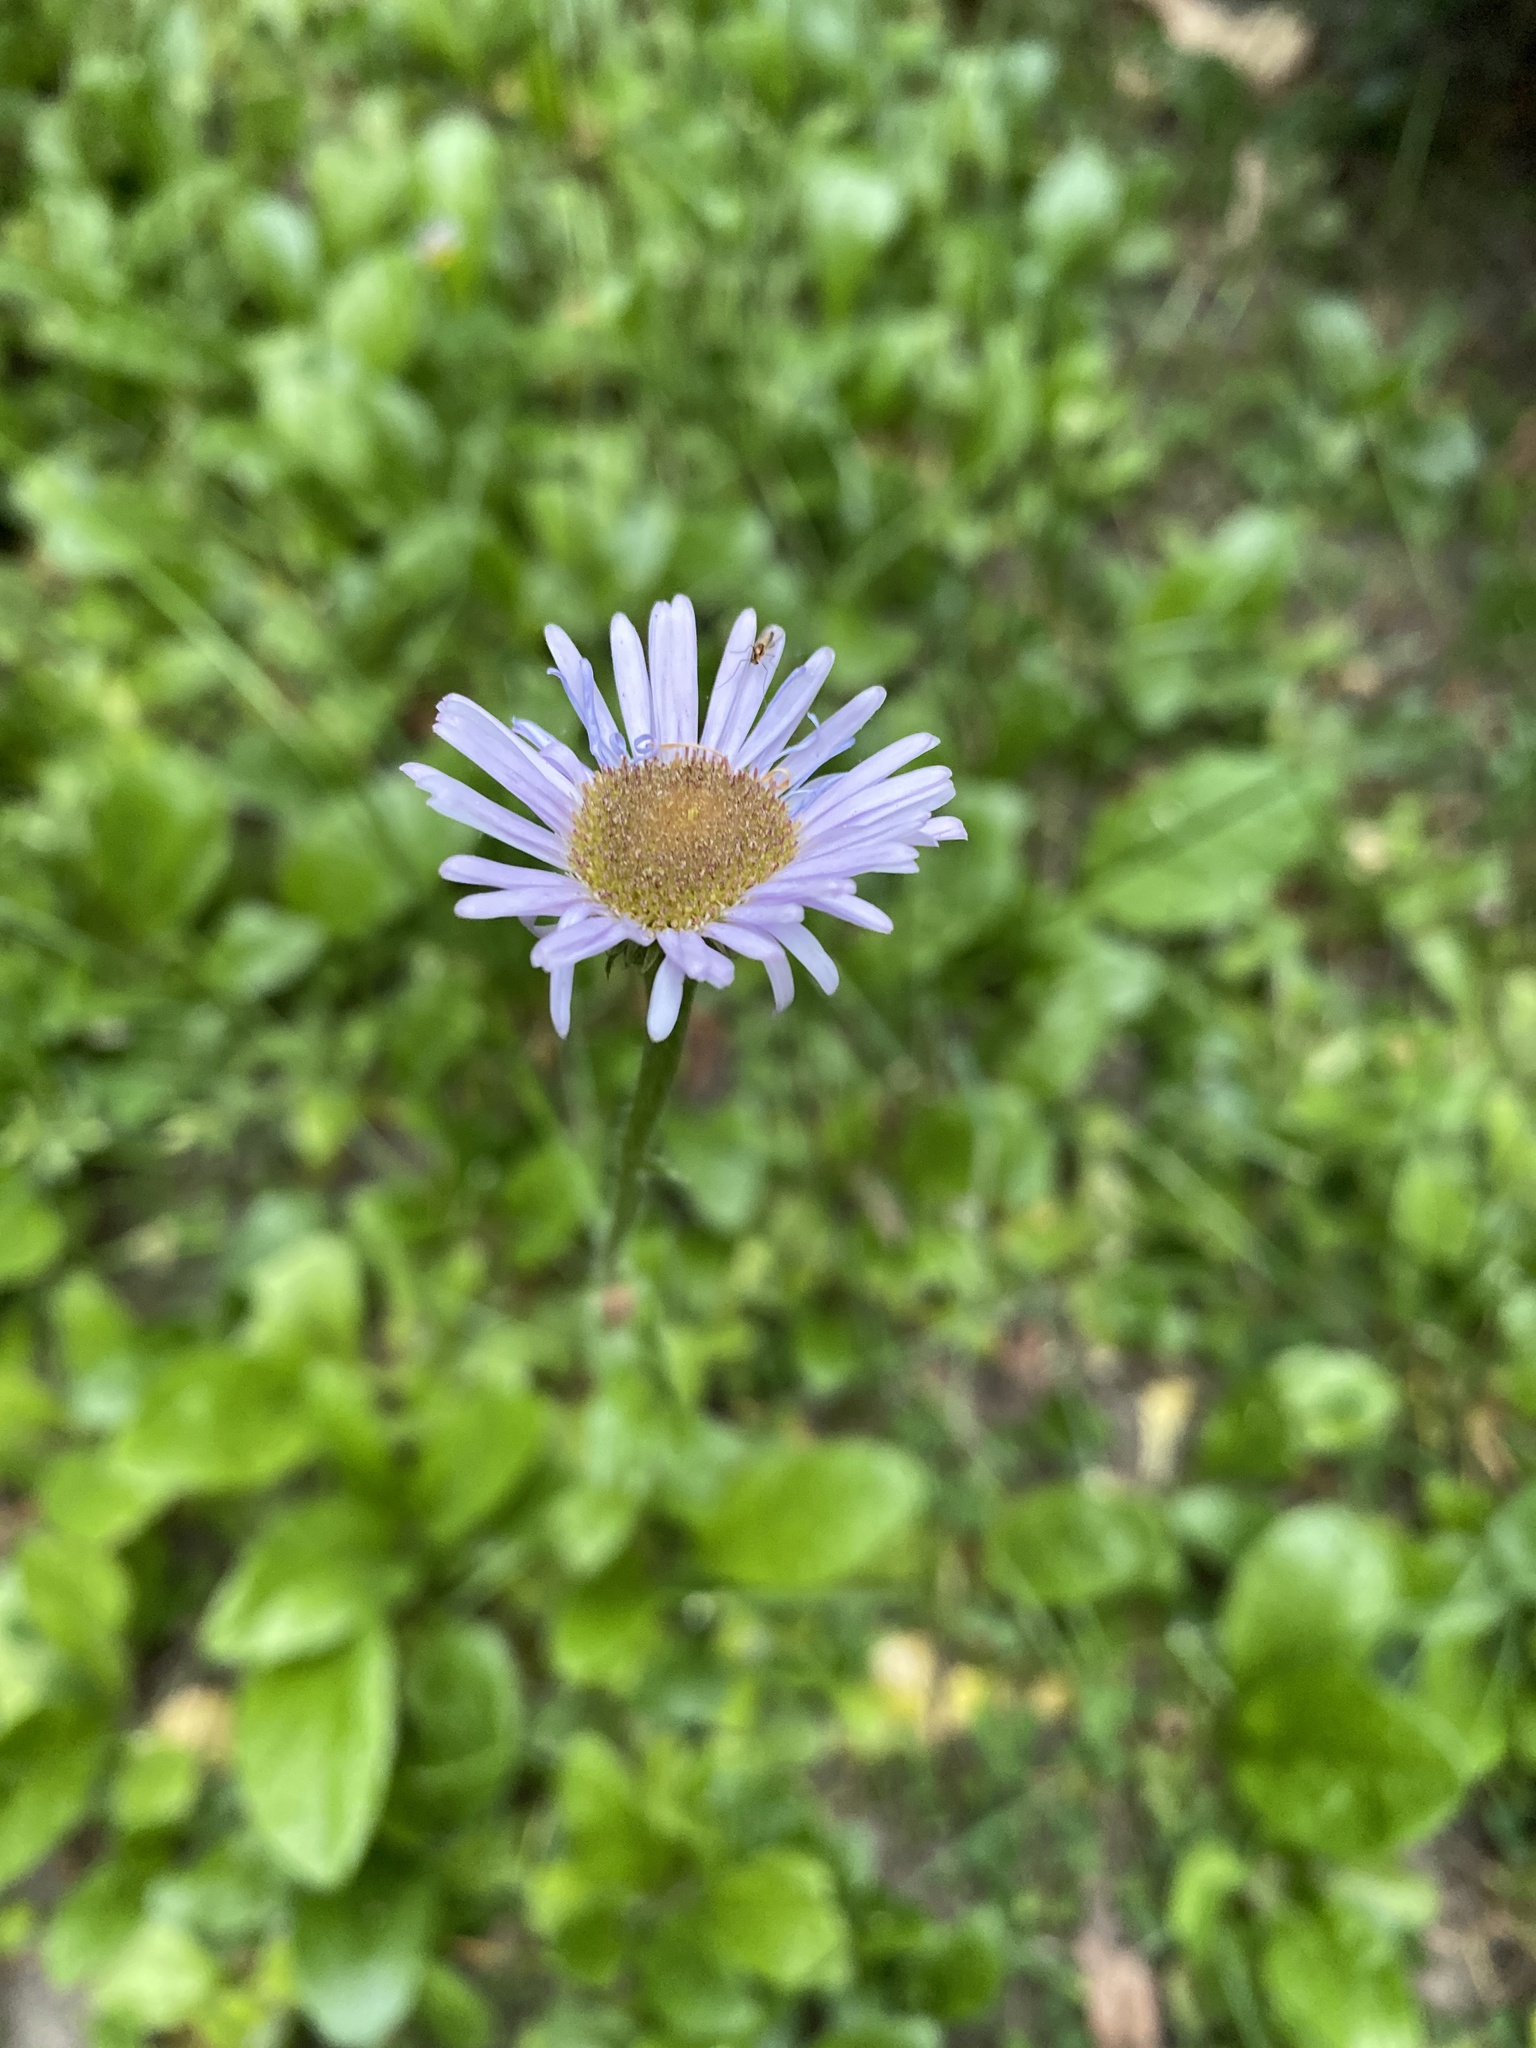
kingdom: Plantae
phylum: Tracheophyta
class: Magnoliopsida
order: Asterales
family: Asteraceae
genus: Erigeron
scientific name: Erigeron pulchellus
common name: Hairy fleabane
